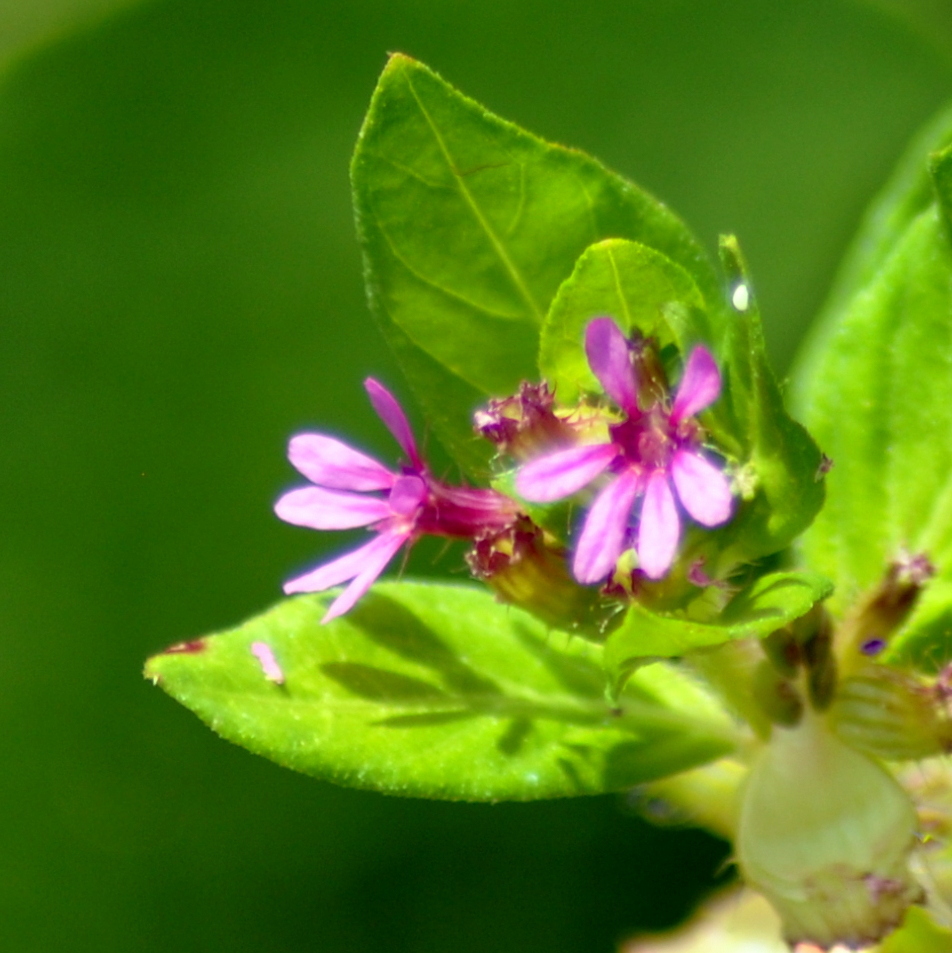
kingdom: Plantae
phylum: Tracheophyta
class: Magnoliopsida
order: Myrtales
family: Lythraceae
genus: Cuphea
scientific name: Cuphea carthagenensis
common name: Colombian waxweed
